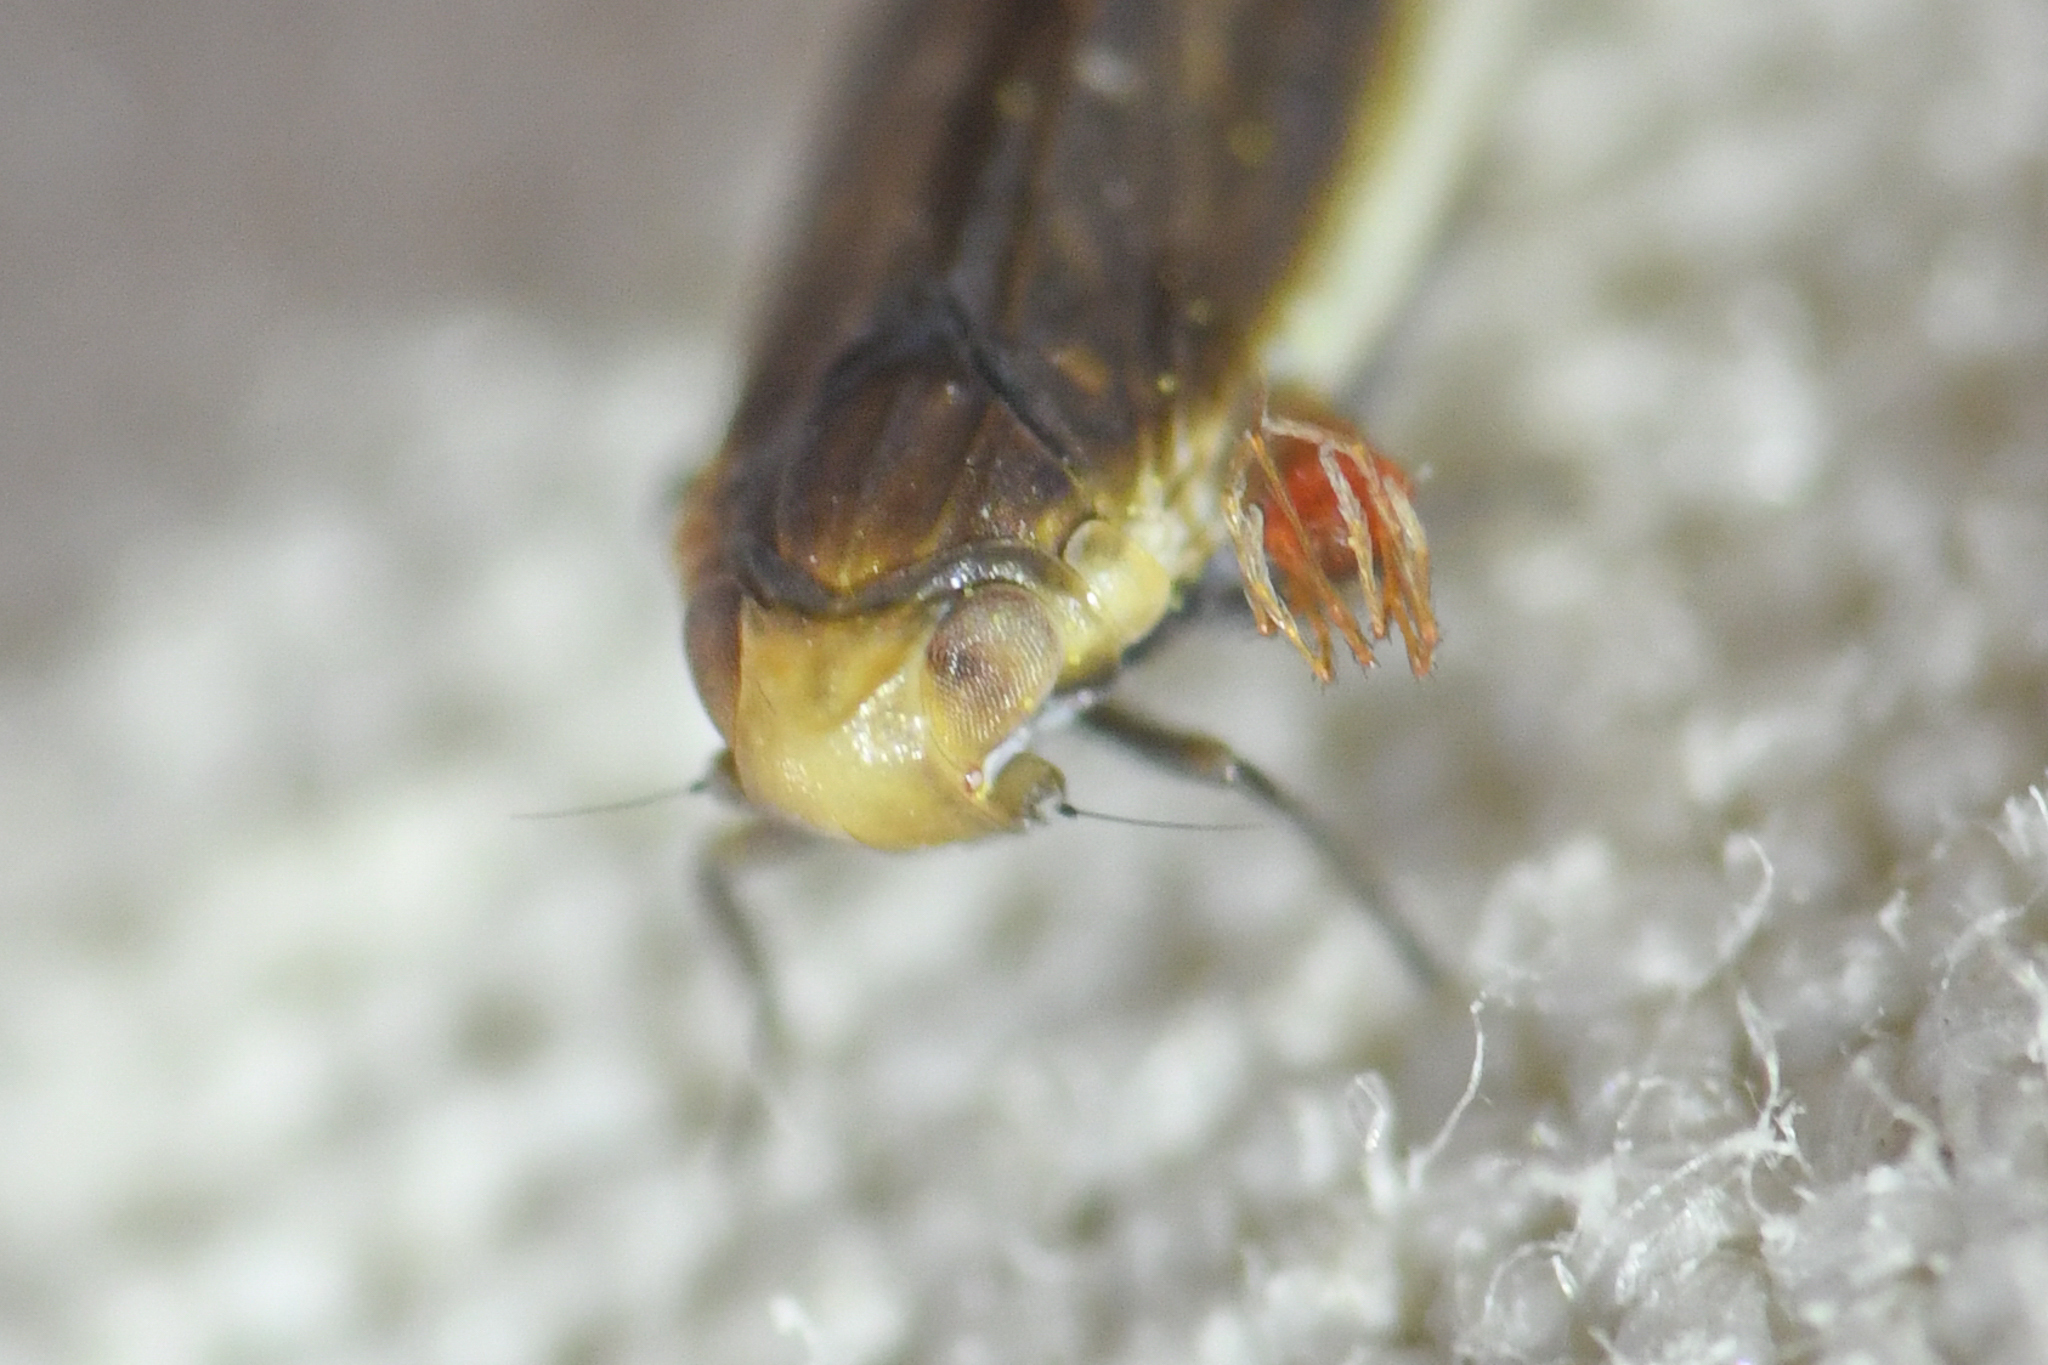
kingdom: Animalia
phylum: Arthropoda
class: Insecta
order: Hemiptera
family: Achilidae
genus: Synecdoche
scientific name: Synecdoche necopina
